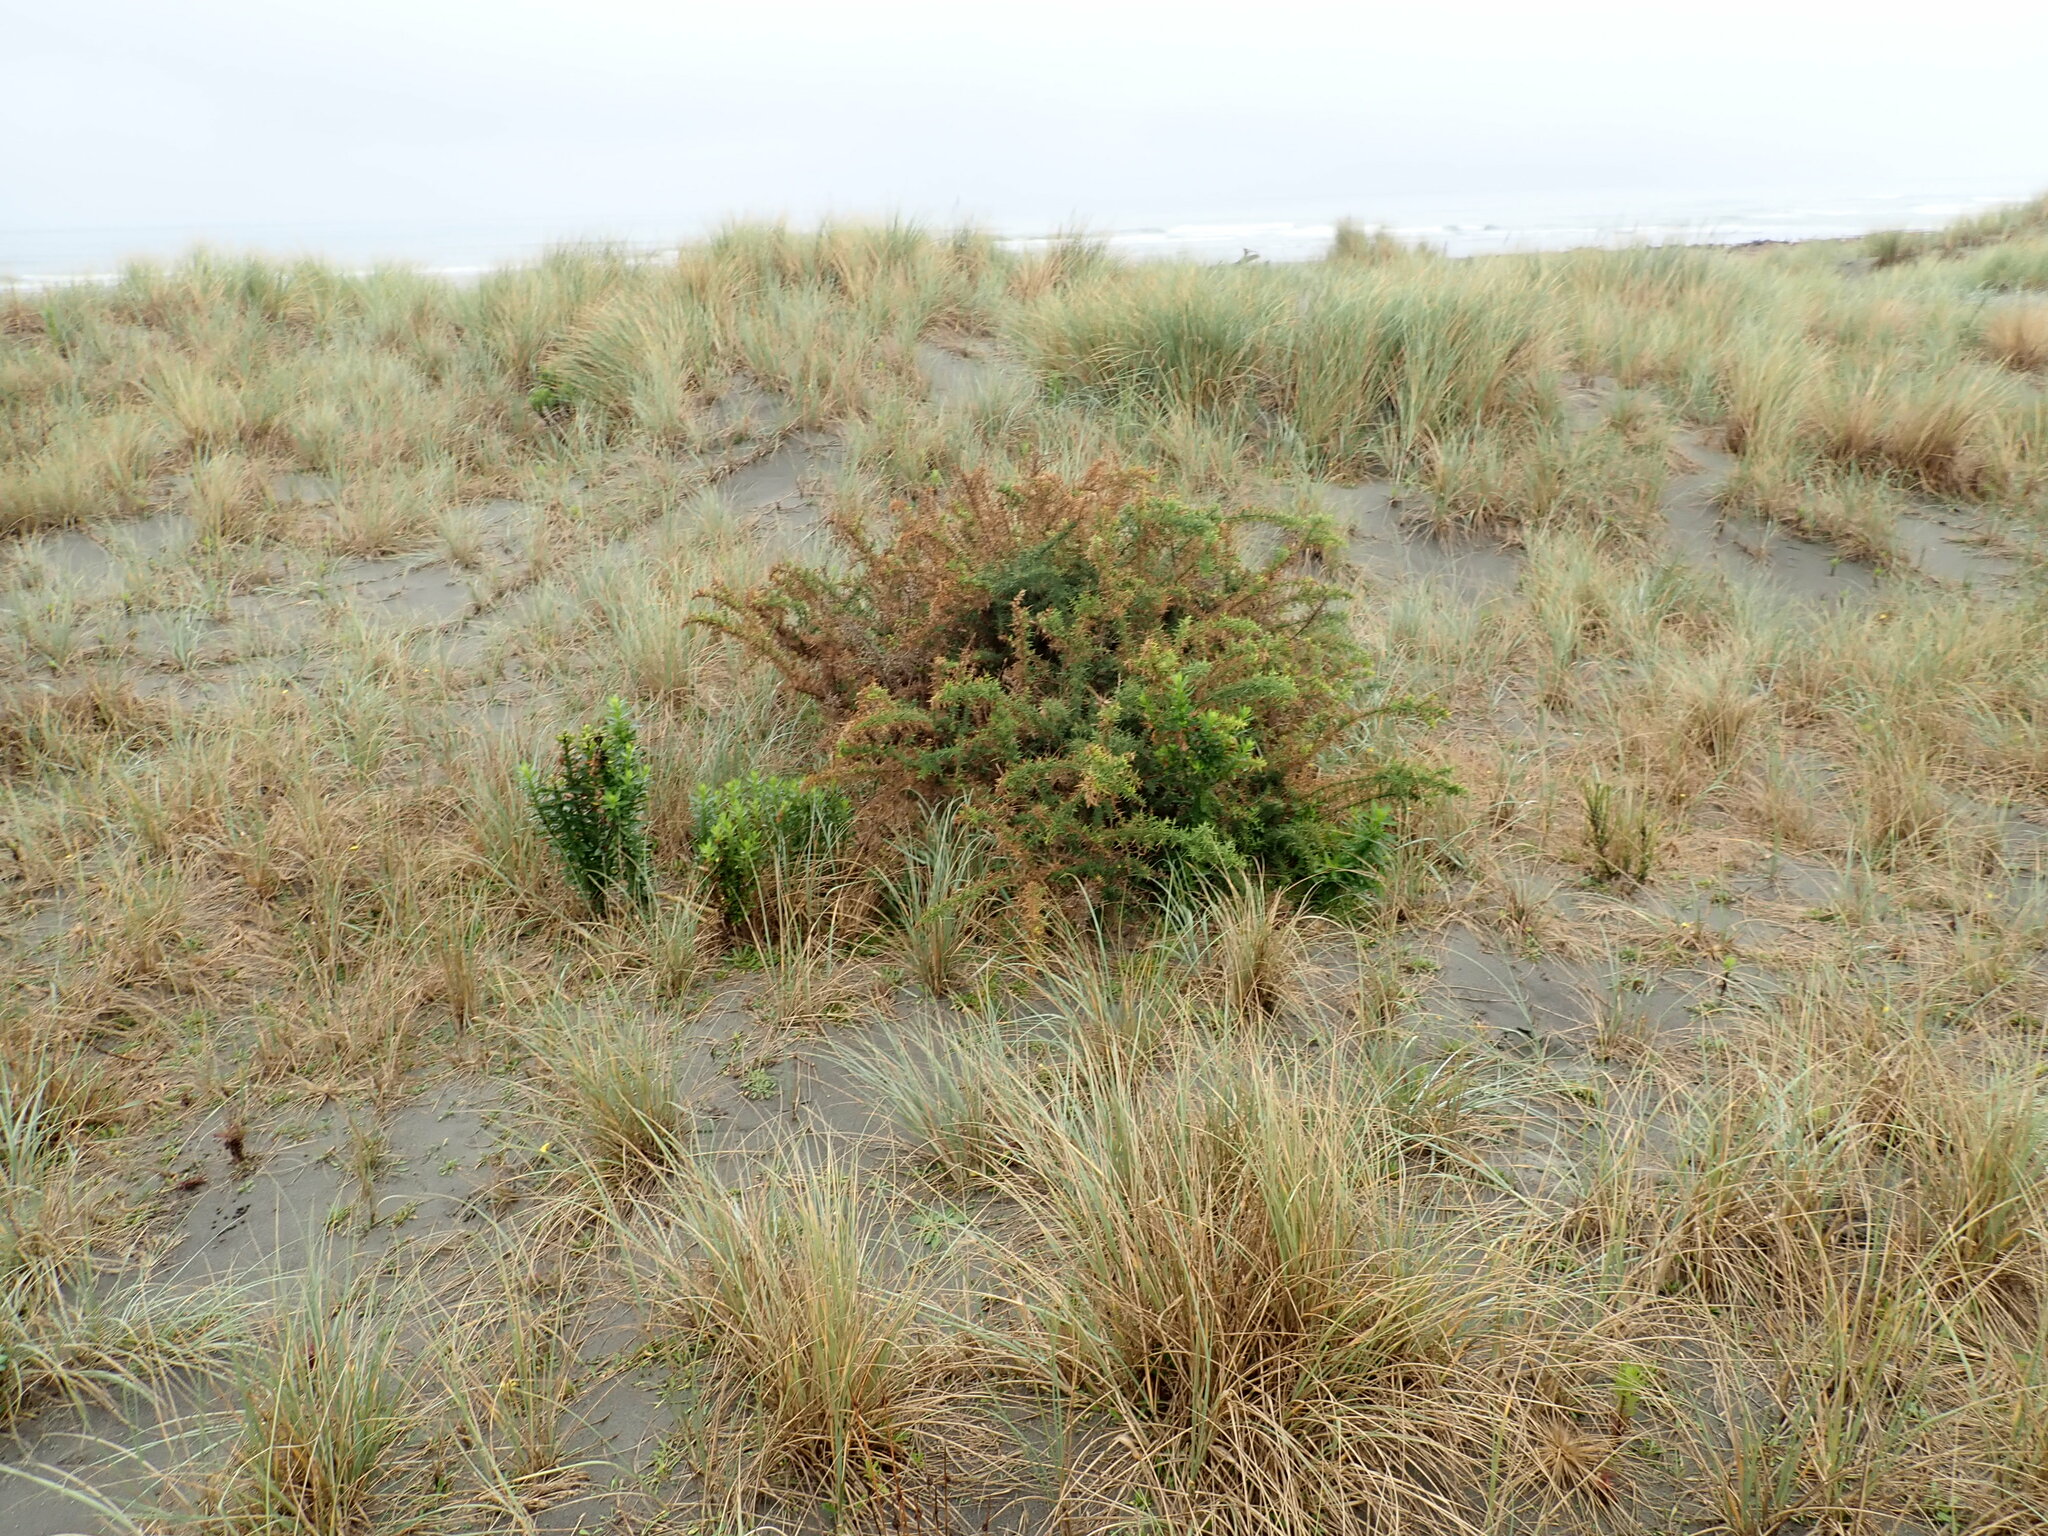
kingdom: Plantae
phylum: Tracheophyta
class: Magnoliopsida
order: Fabales
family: Fabaceae
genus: Ulex
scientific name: Ulex europaeus
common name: Common gorse
